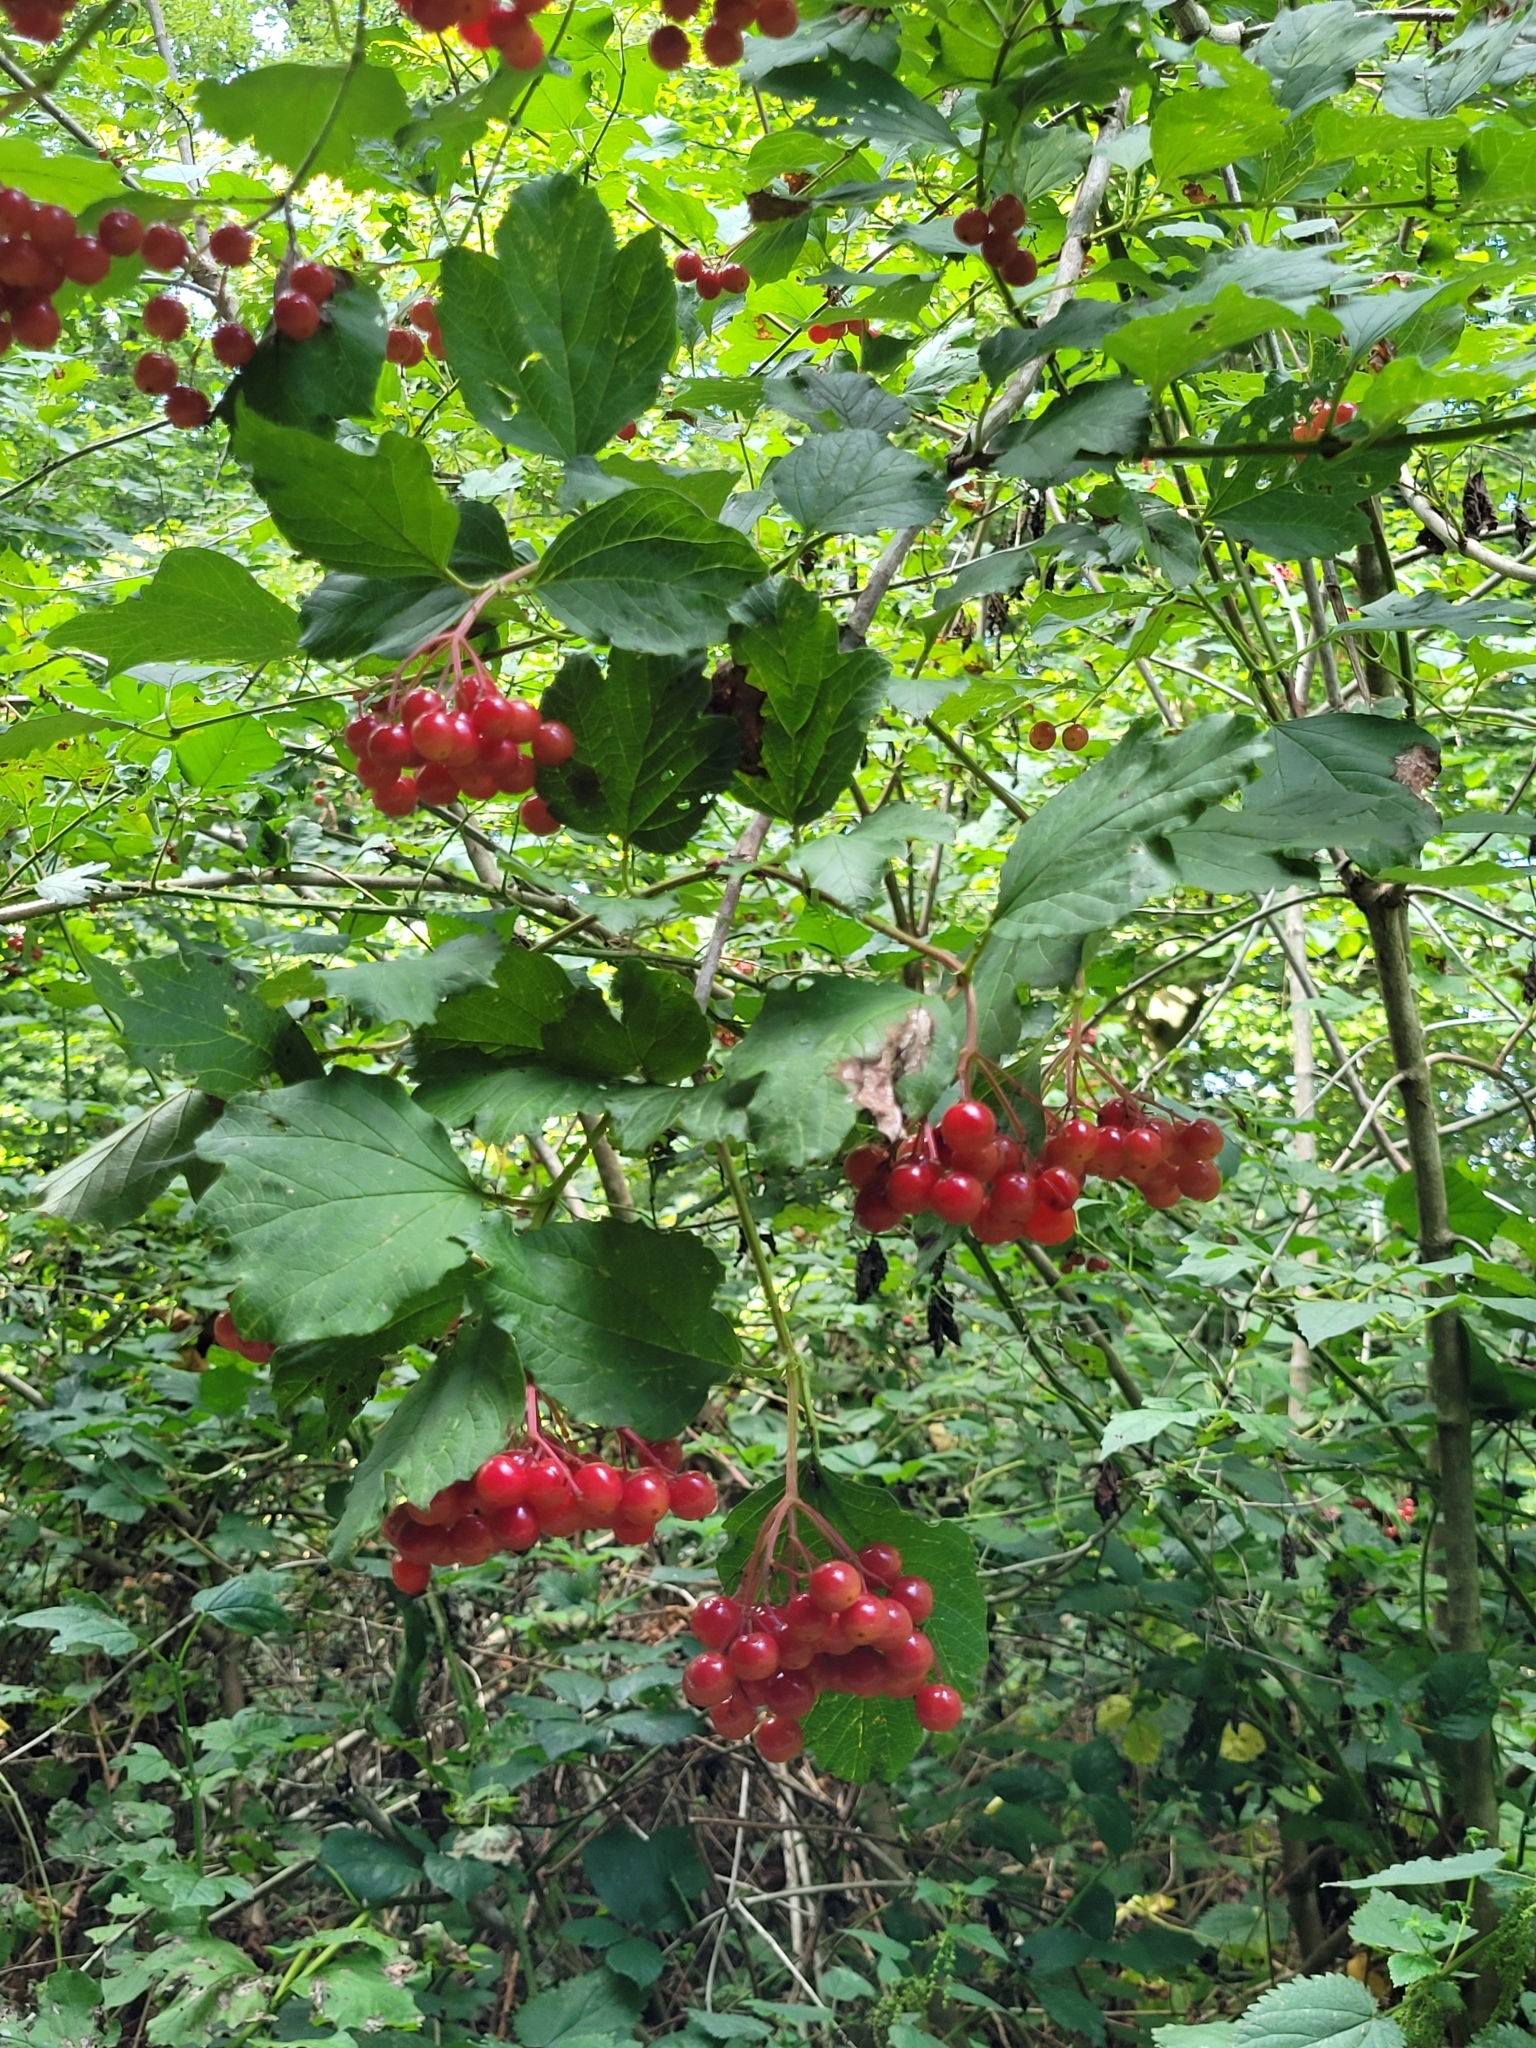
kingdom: Plantae
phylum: Tracheophyta
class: Magnoliopsida
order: Dipsacales
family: Viburnaceae
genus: Viburnum
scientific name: Viburnum opulus
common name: Guelder-rose
